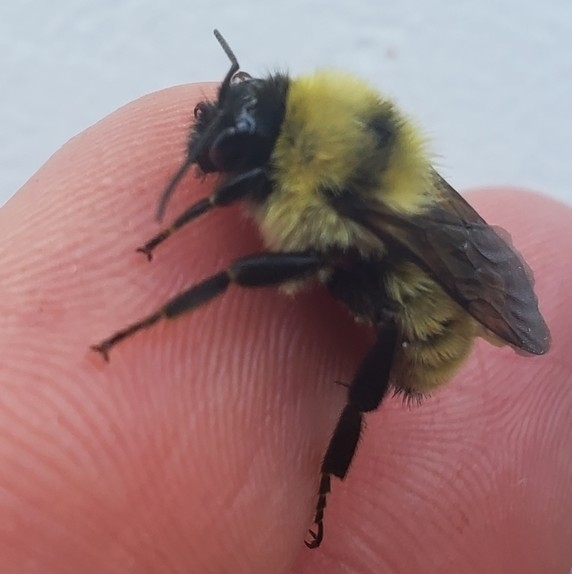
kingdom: Animalia
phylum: Arthropoda
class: Insecta
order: Hymenoptera
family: Apidae
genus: Bombus
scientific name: Bombus fervidus
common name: Yellow bumble bee
